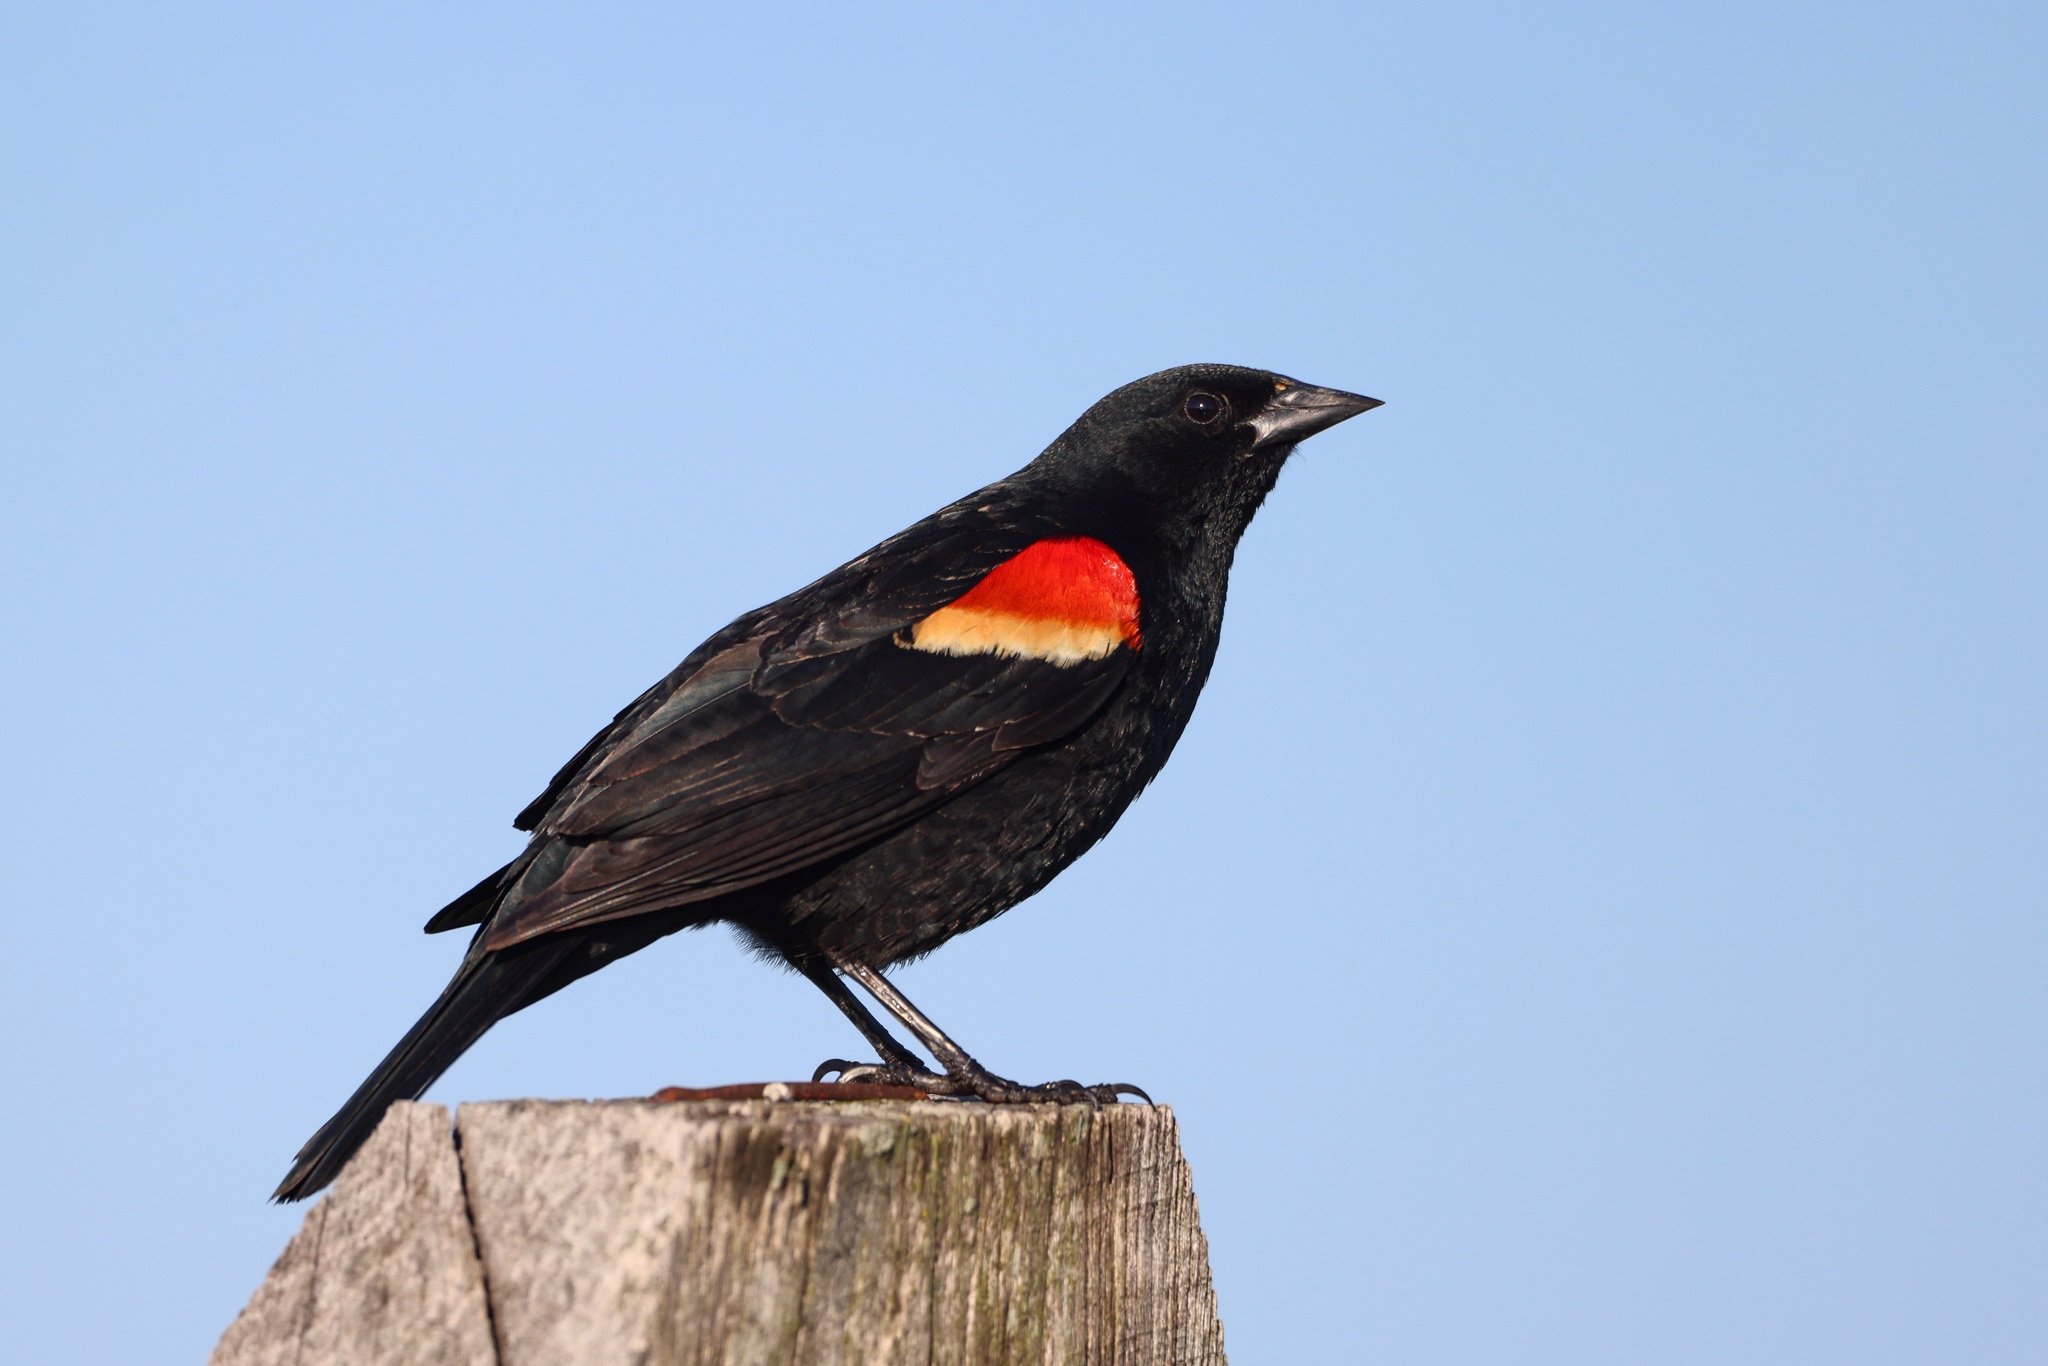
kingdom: Animalia
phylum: Chordata
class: Aves
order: Passeriformes
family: Icteridae
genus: Agelaius
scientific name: Agelaius phoeniceus
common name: Red-winged blackbird
